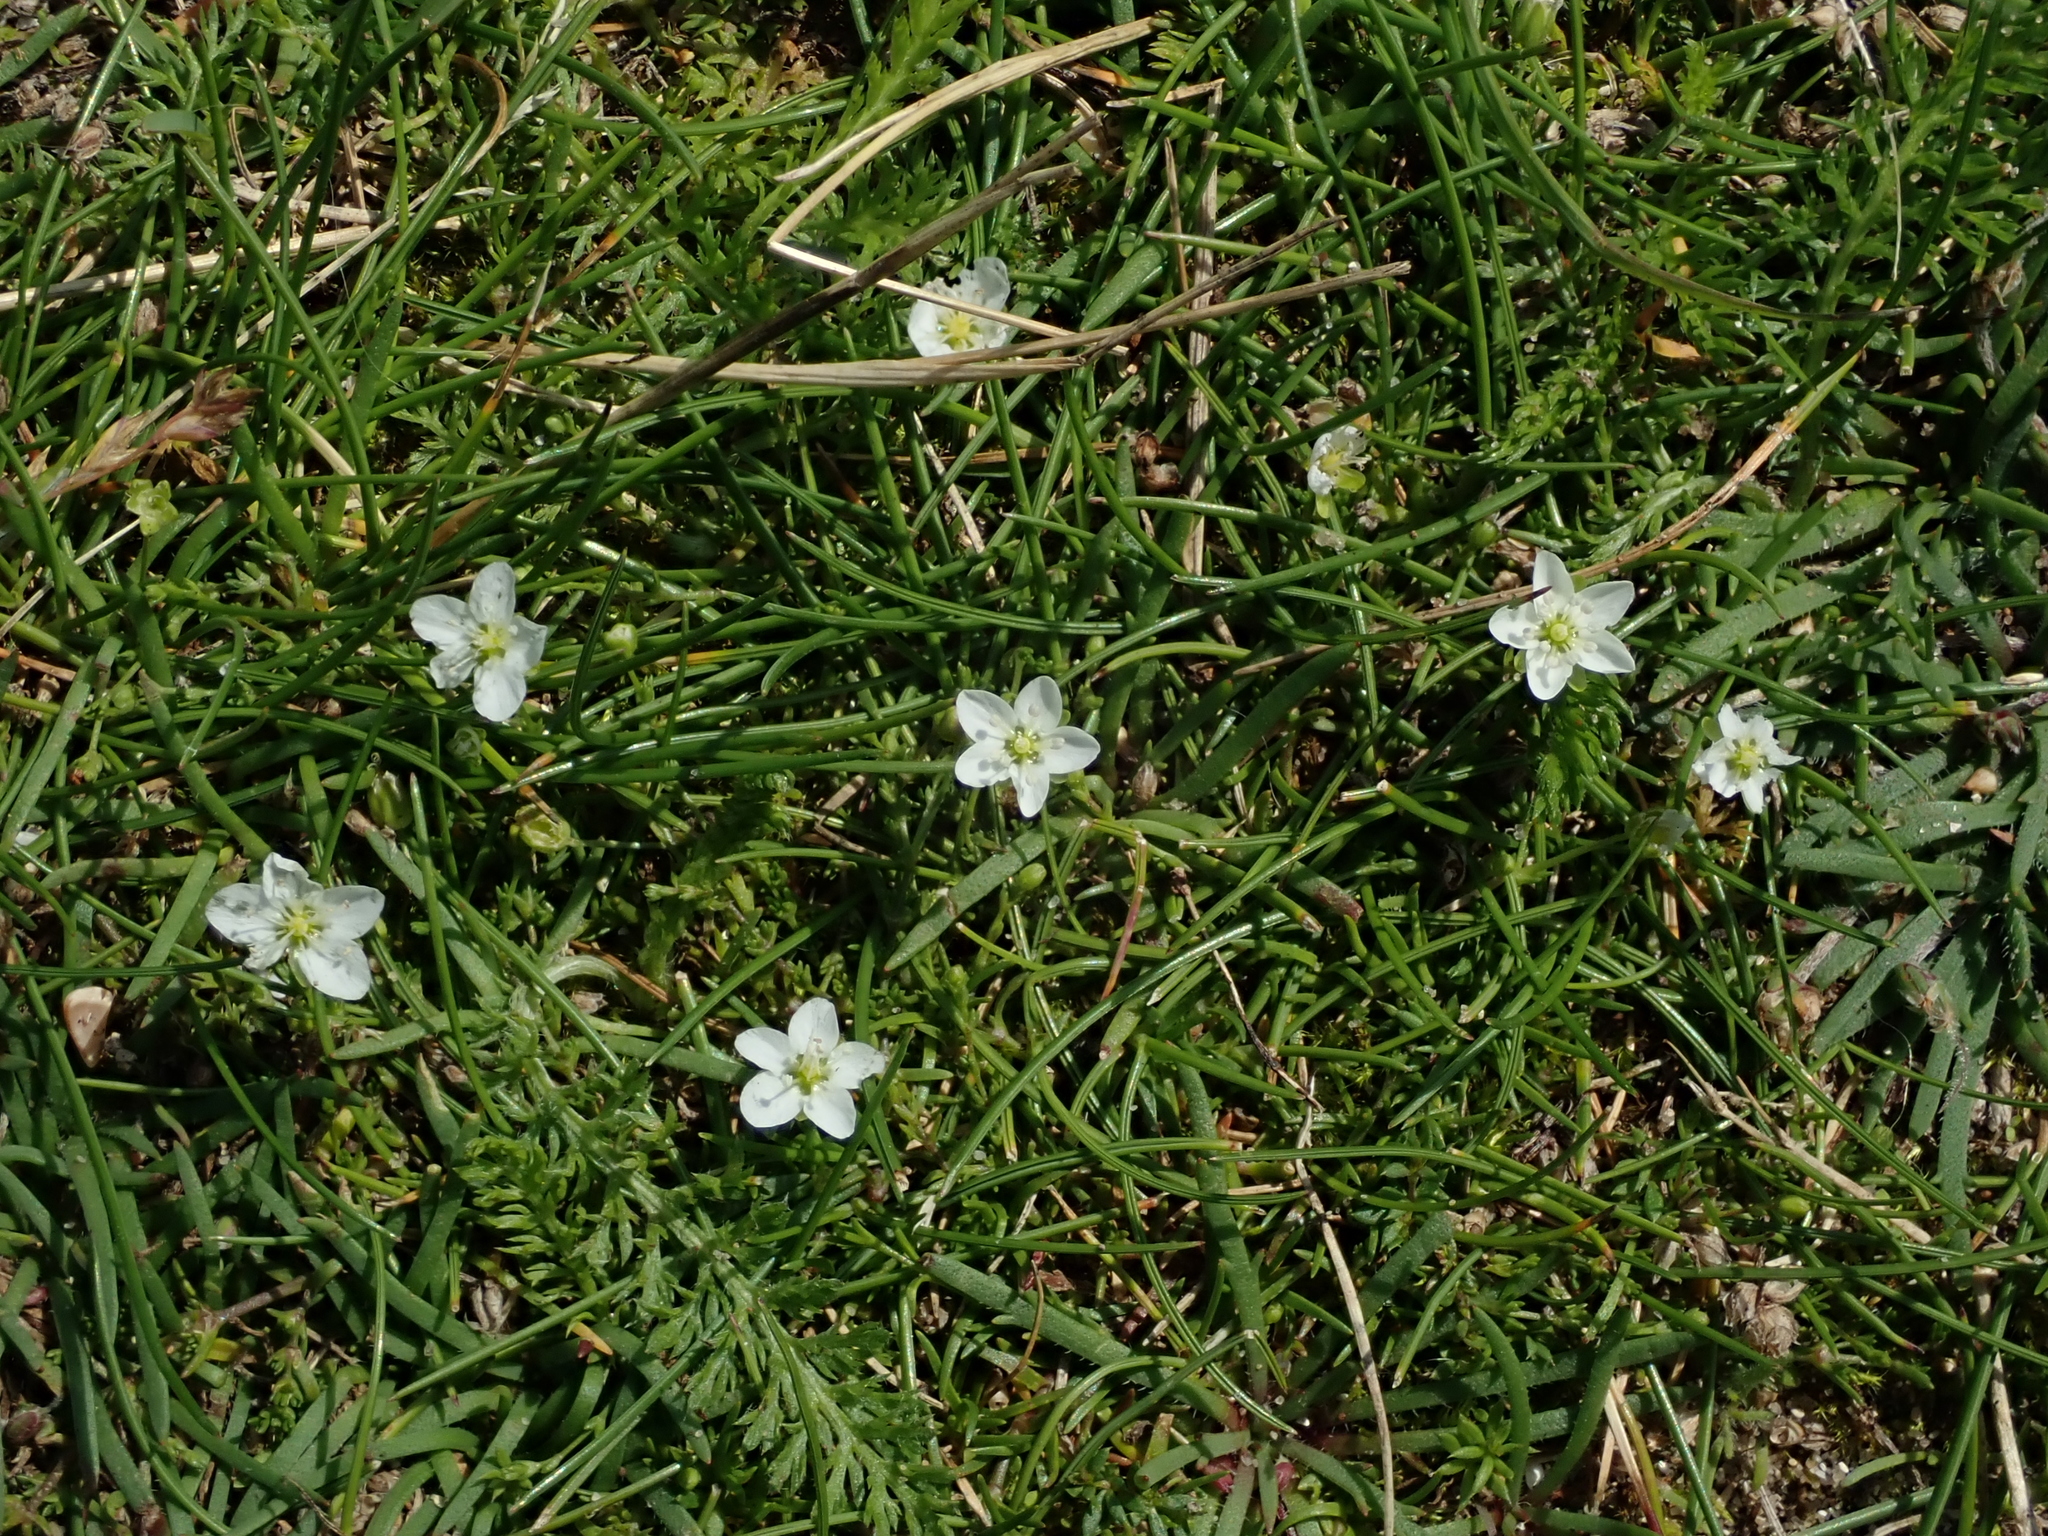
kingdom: Plantae
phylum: Tracheophyta
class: Magnoliopsida
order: Caryophyllales
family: Caryophyllaceae
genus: Sagina
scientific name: Sagina nodosa
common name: Knotted pearlwort
